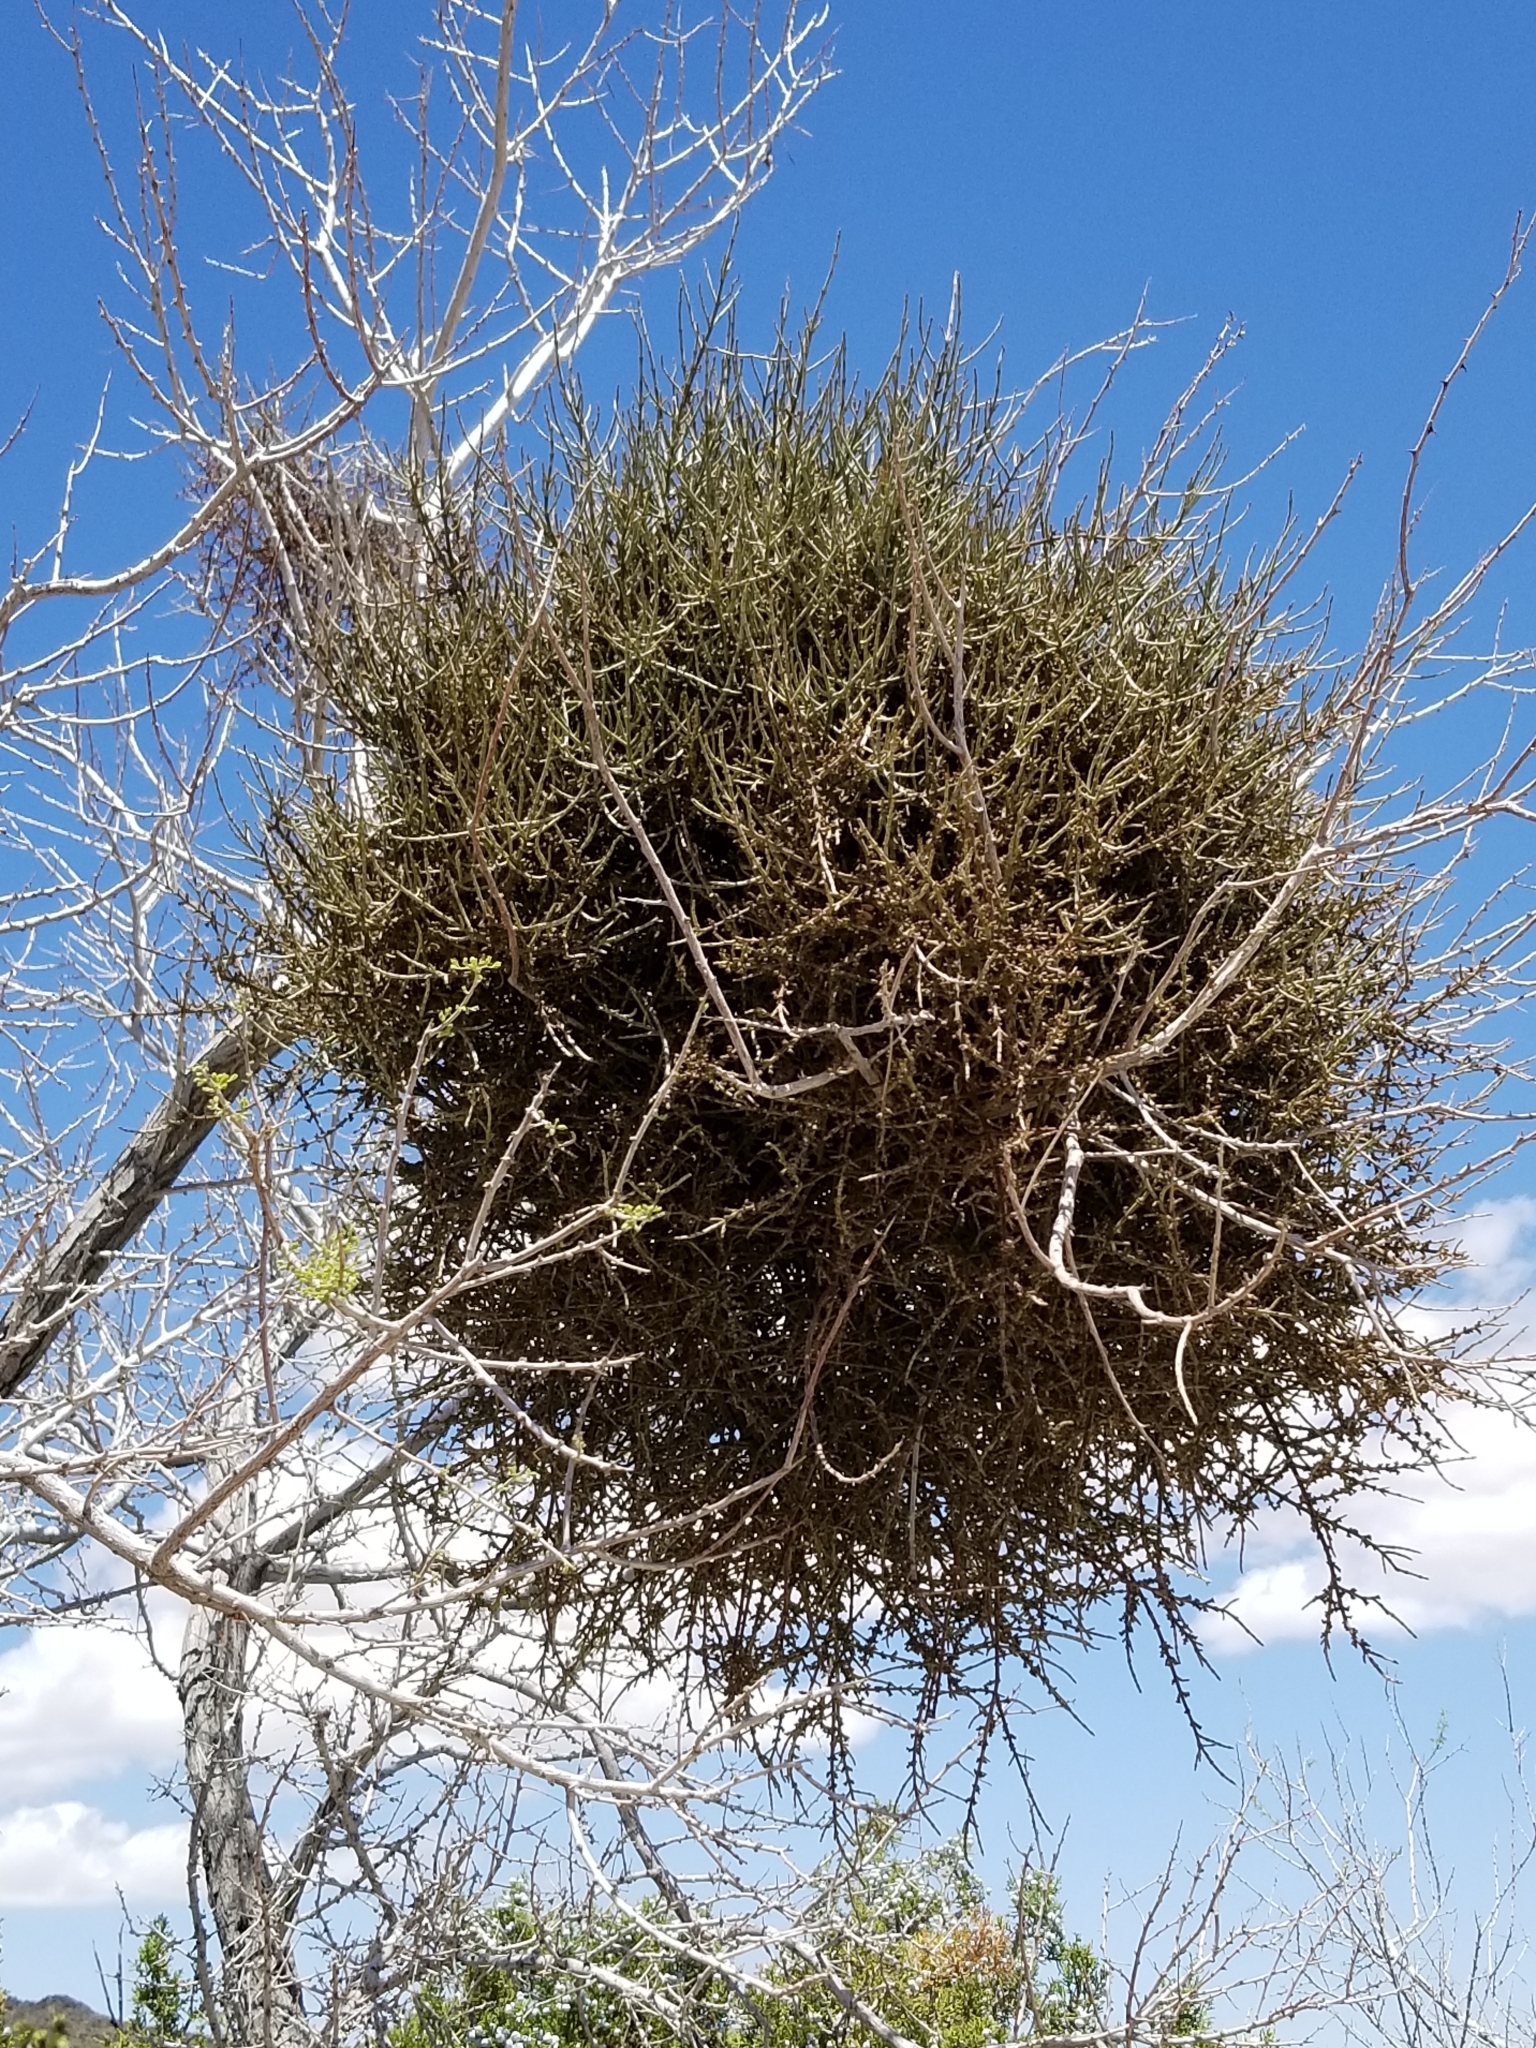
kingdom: Plantae
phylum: Tracheophyta
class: Magnoliopsida
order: Santalales
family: Viscaceae
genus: Phoradendron
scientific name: Phoradendron californicum
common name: Acacia mistletoe
